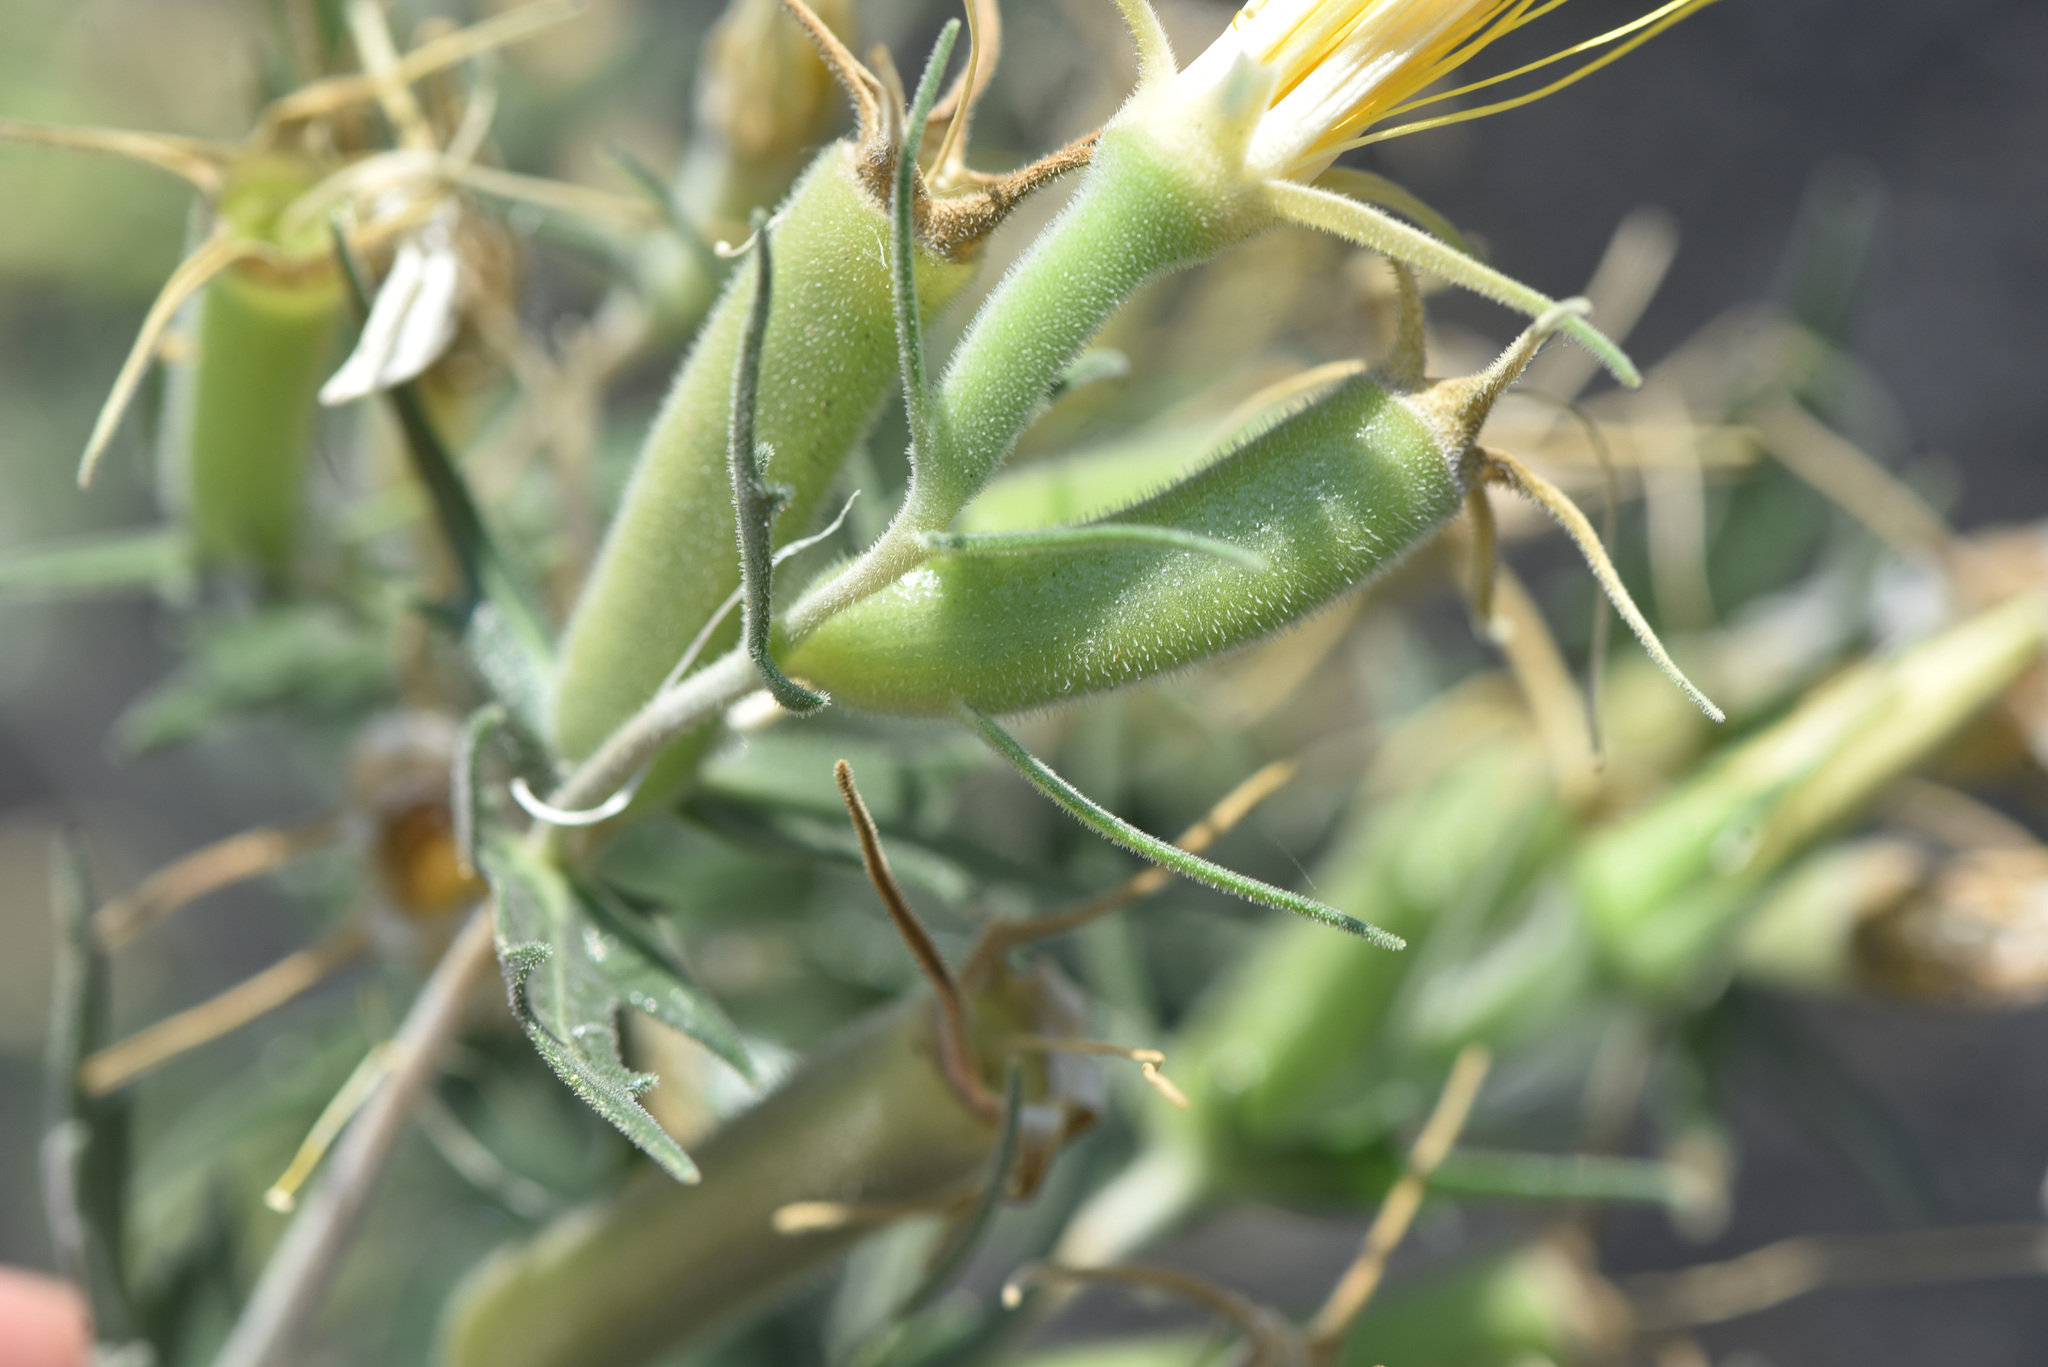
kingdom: Plantae
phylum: Tracheophyta
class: Magnoliopsida
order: Cornales
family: Loasaceae
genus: Mentzelia
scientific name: Mentzelia laevicaulis
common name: Smooth-stem blazingstar
